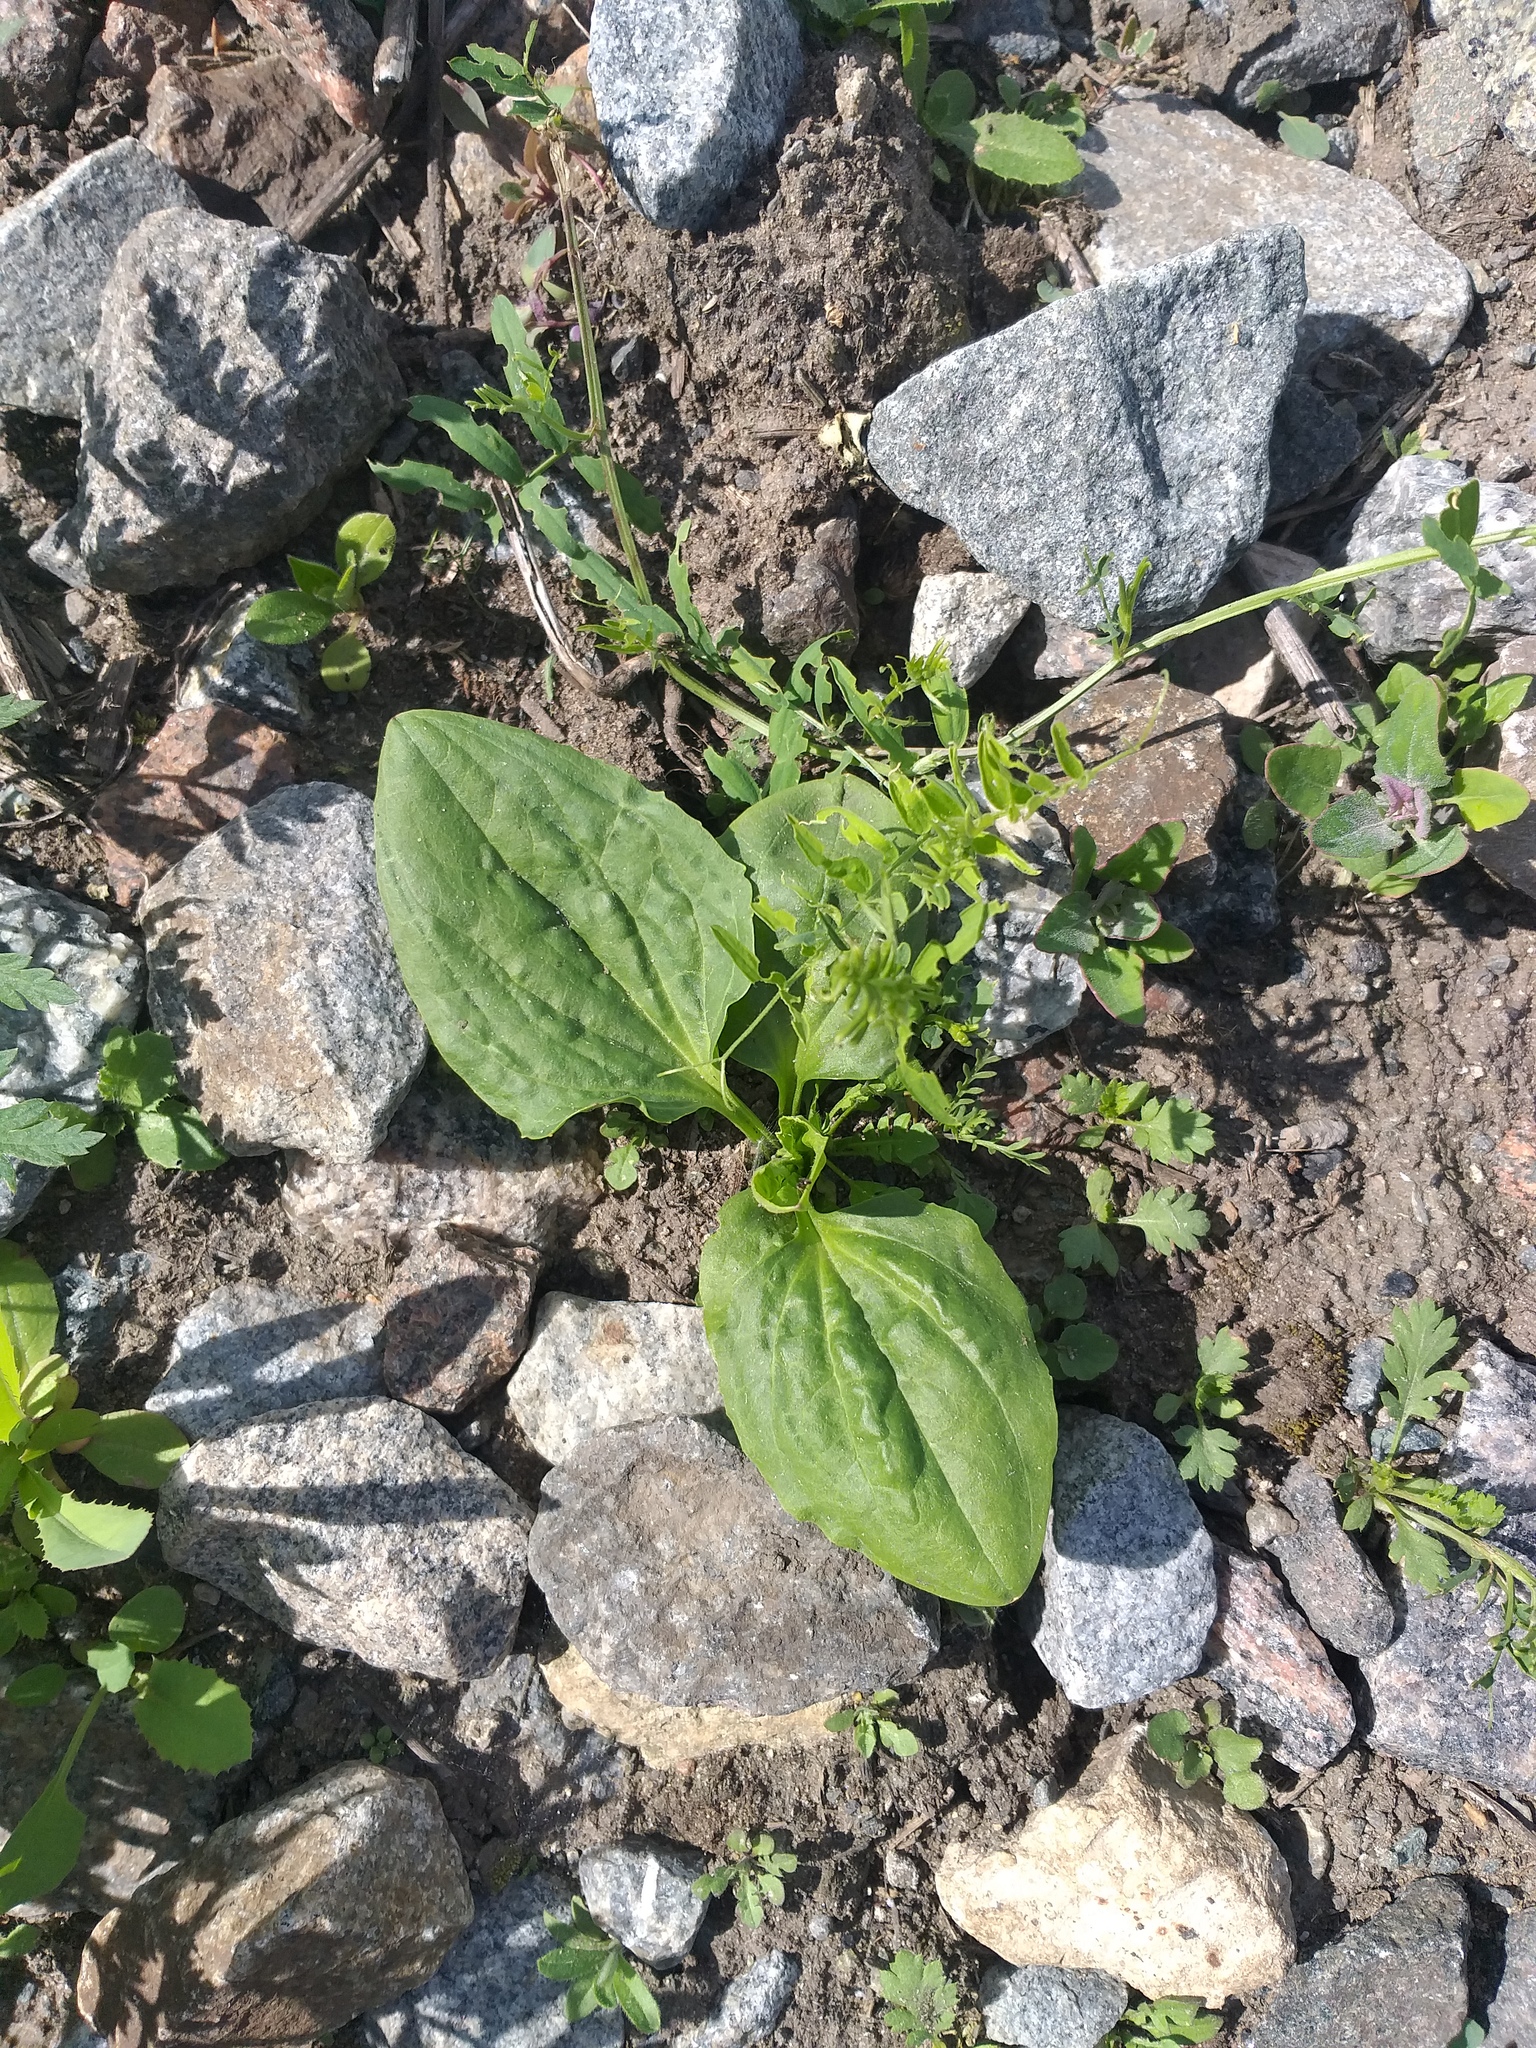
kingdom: Plantae
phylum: Tracheophyta
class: Magnoliopsida
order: Lamiales
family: Plantaginaceae
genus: Plantago
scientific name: Plantago major
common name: Common plantain
